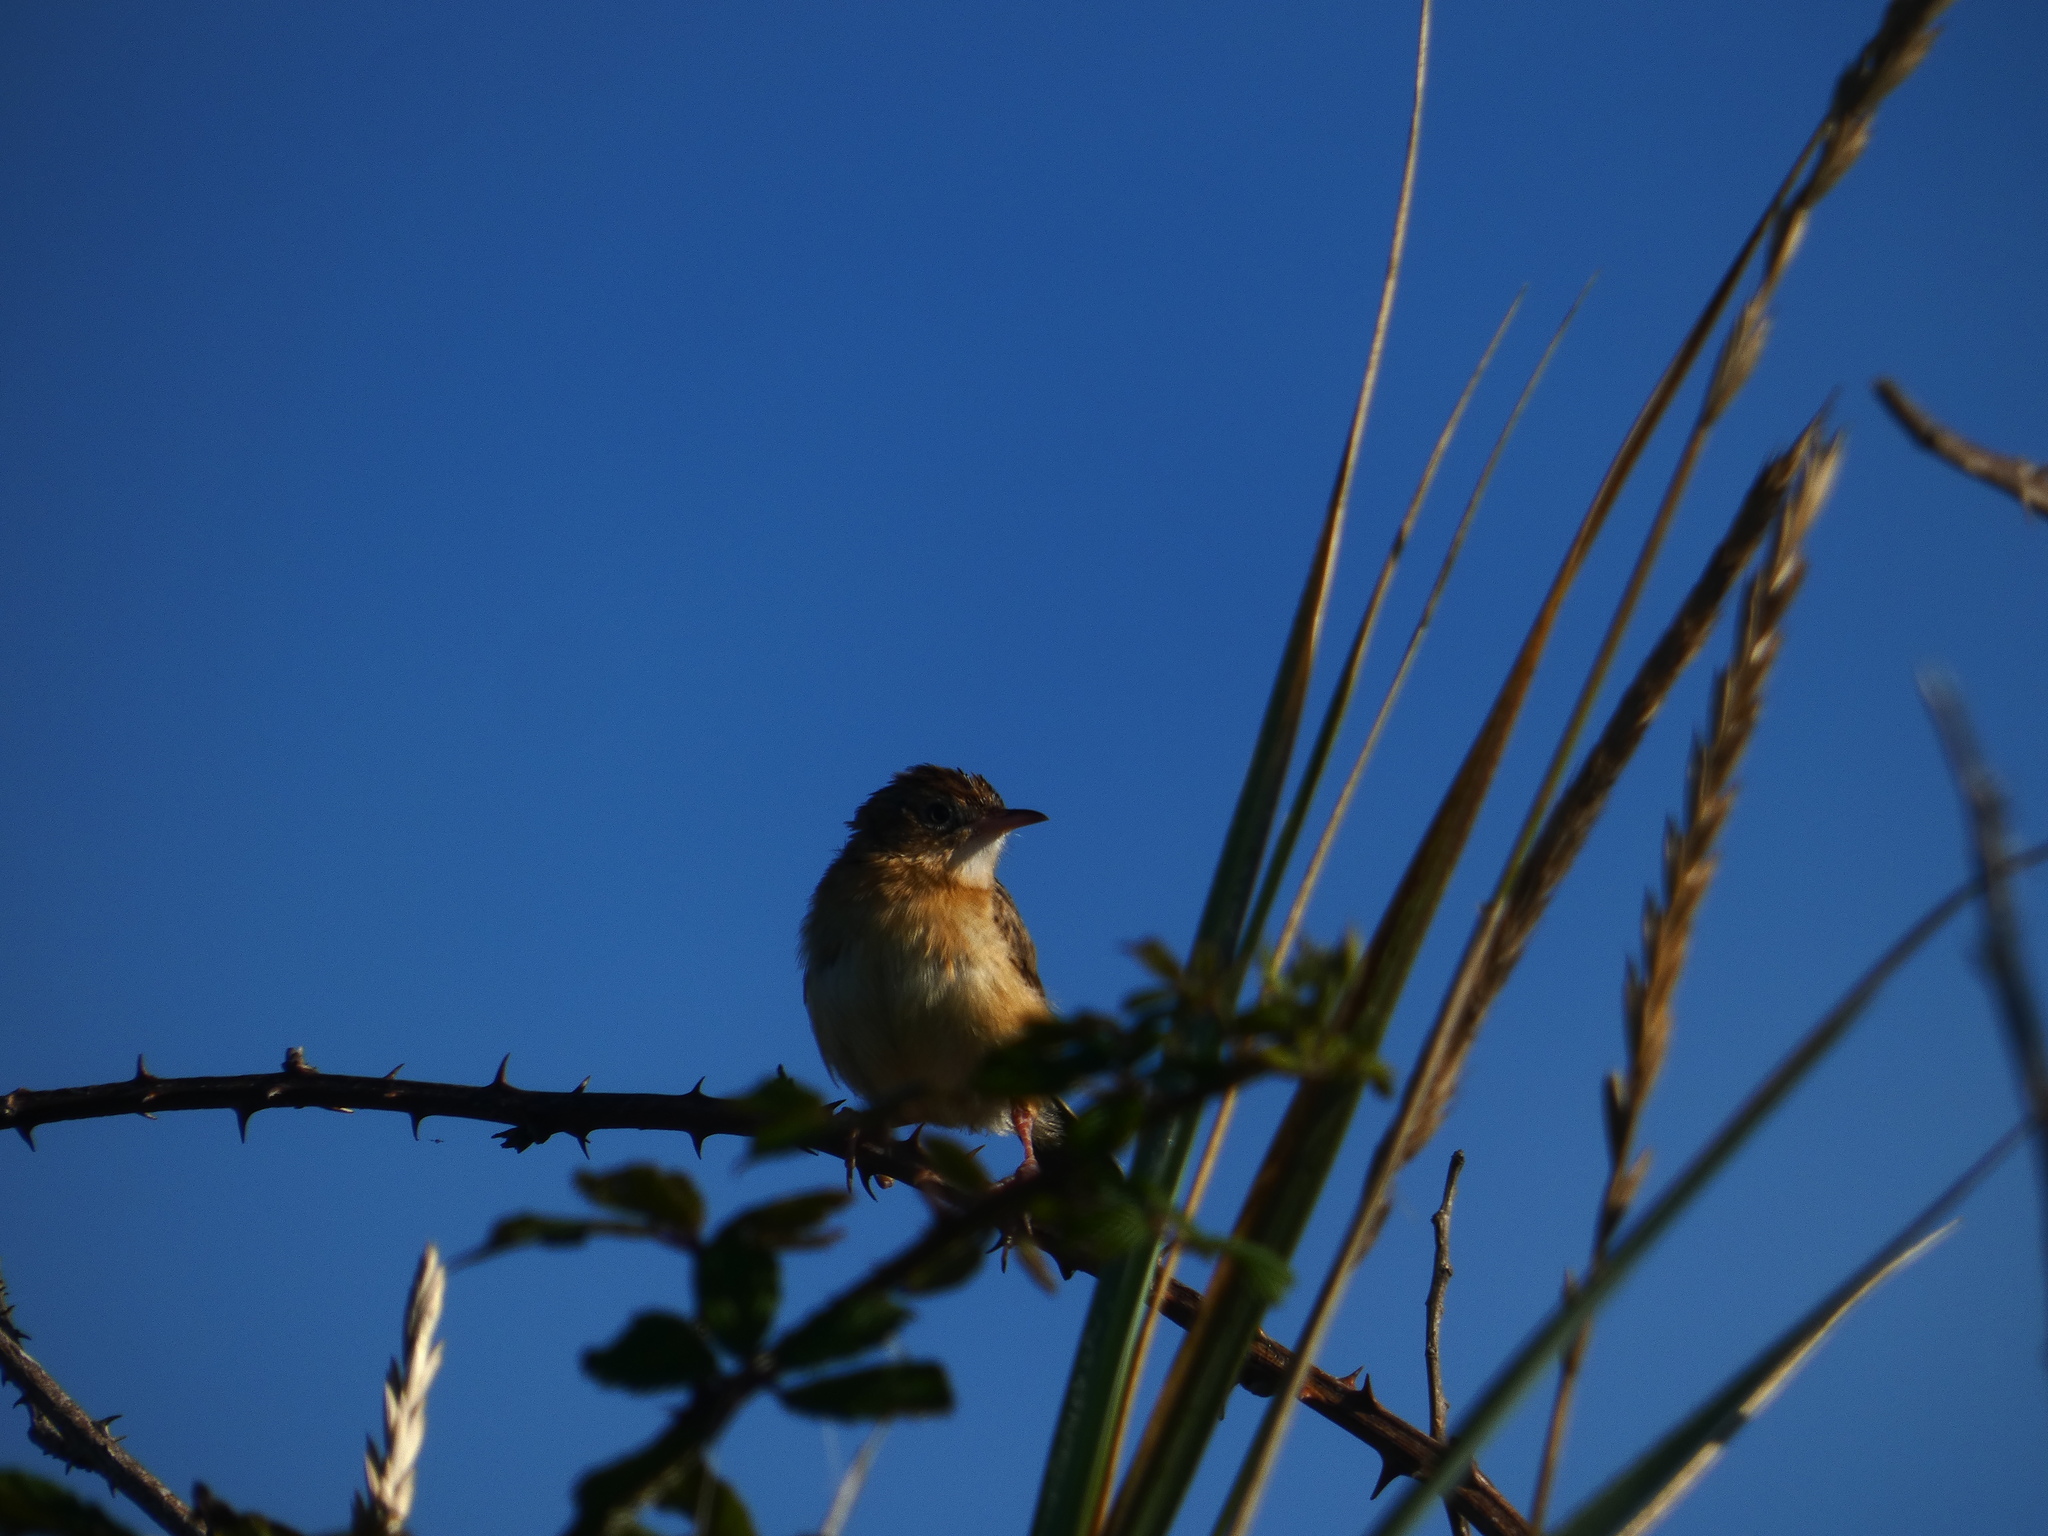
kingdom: Animalia
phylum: Chordata
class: Aves
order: Passeriformes
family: Cisticolidae
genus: Cisticola
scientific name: Cisticola juncidis
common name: Zitting cisticola
